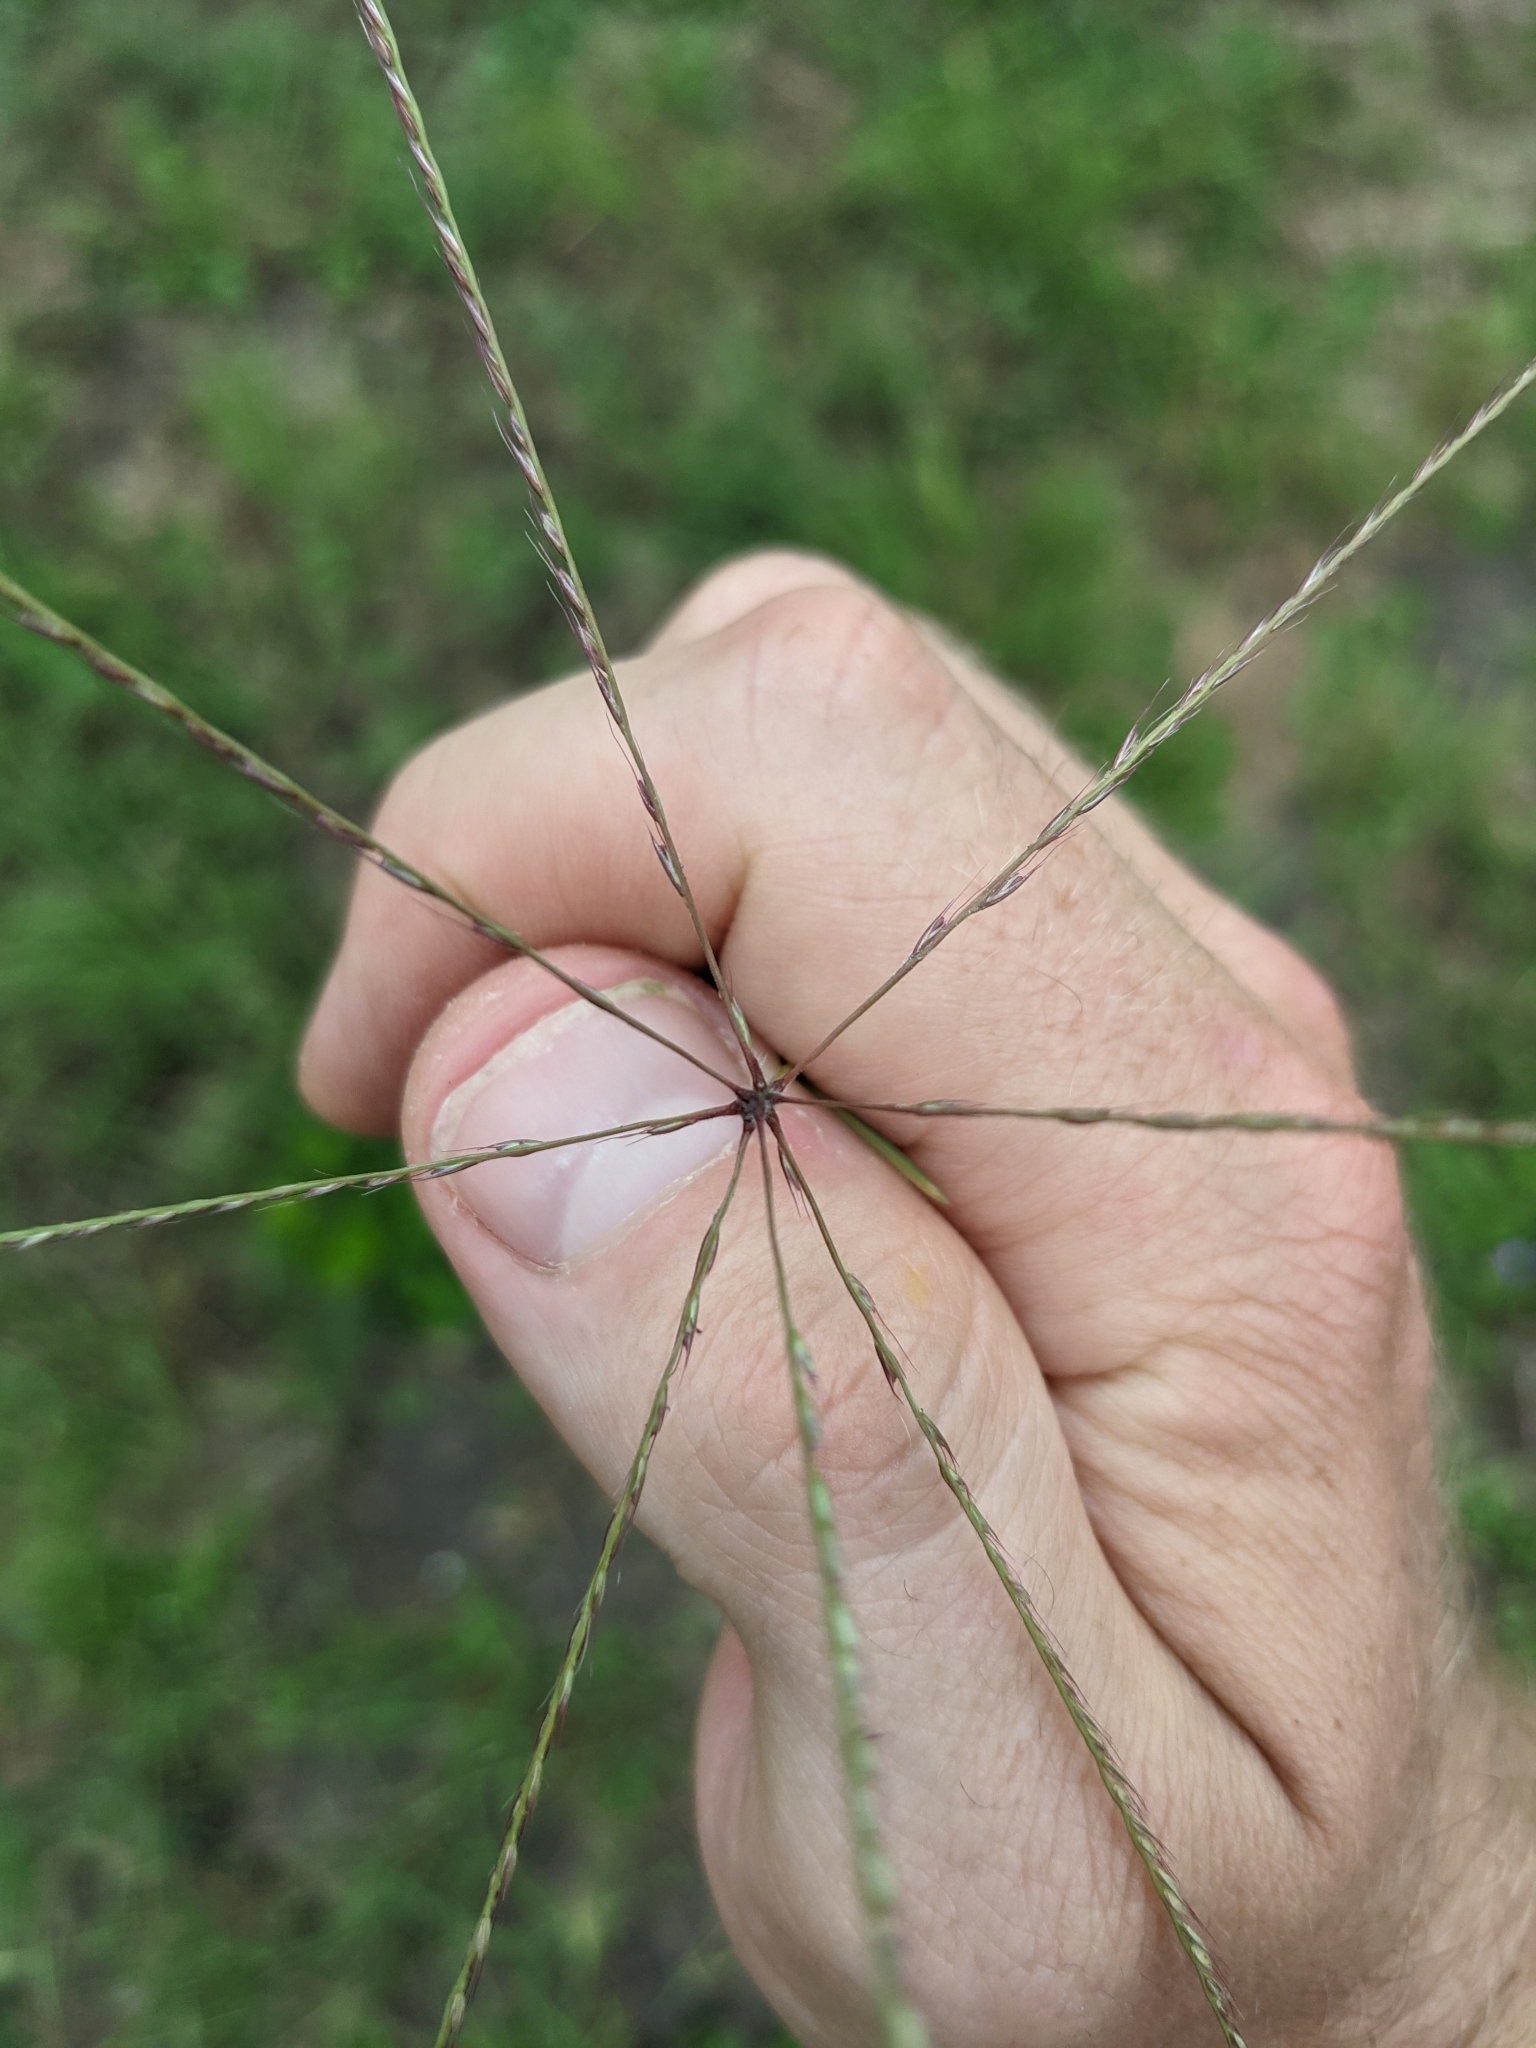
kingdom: Plantae
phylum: Tracheophyta
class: Liliopsida
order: Poales
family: Poaceae
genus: Chloris
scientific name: Chloris andropogonoides
